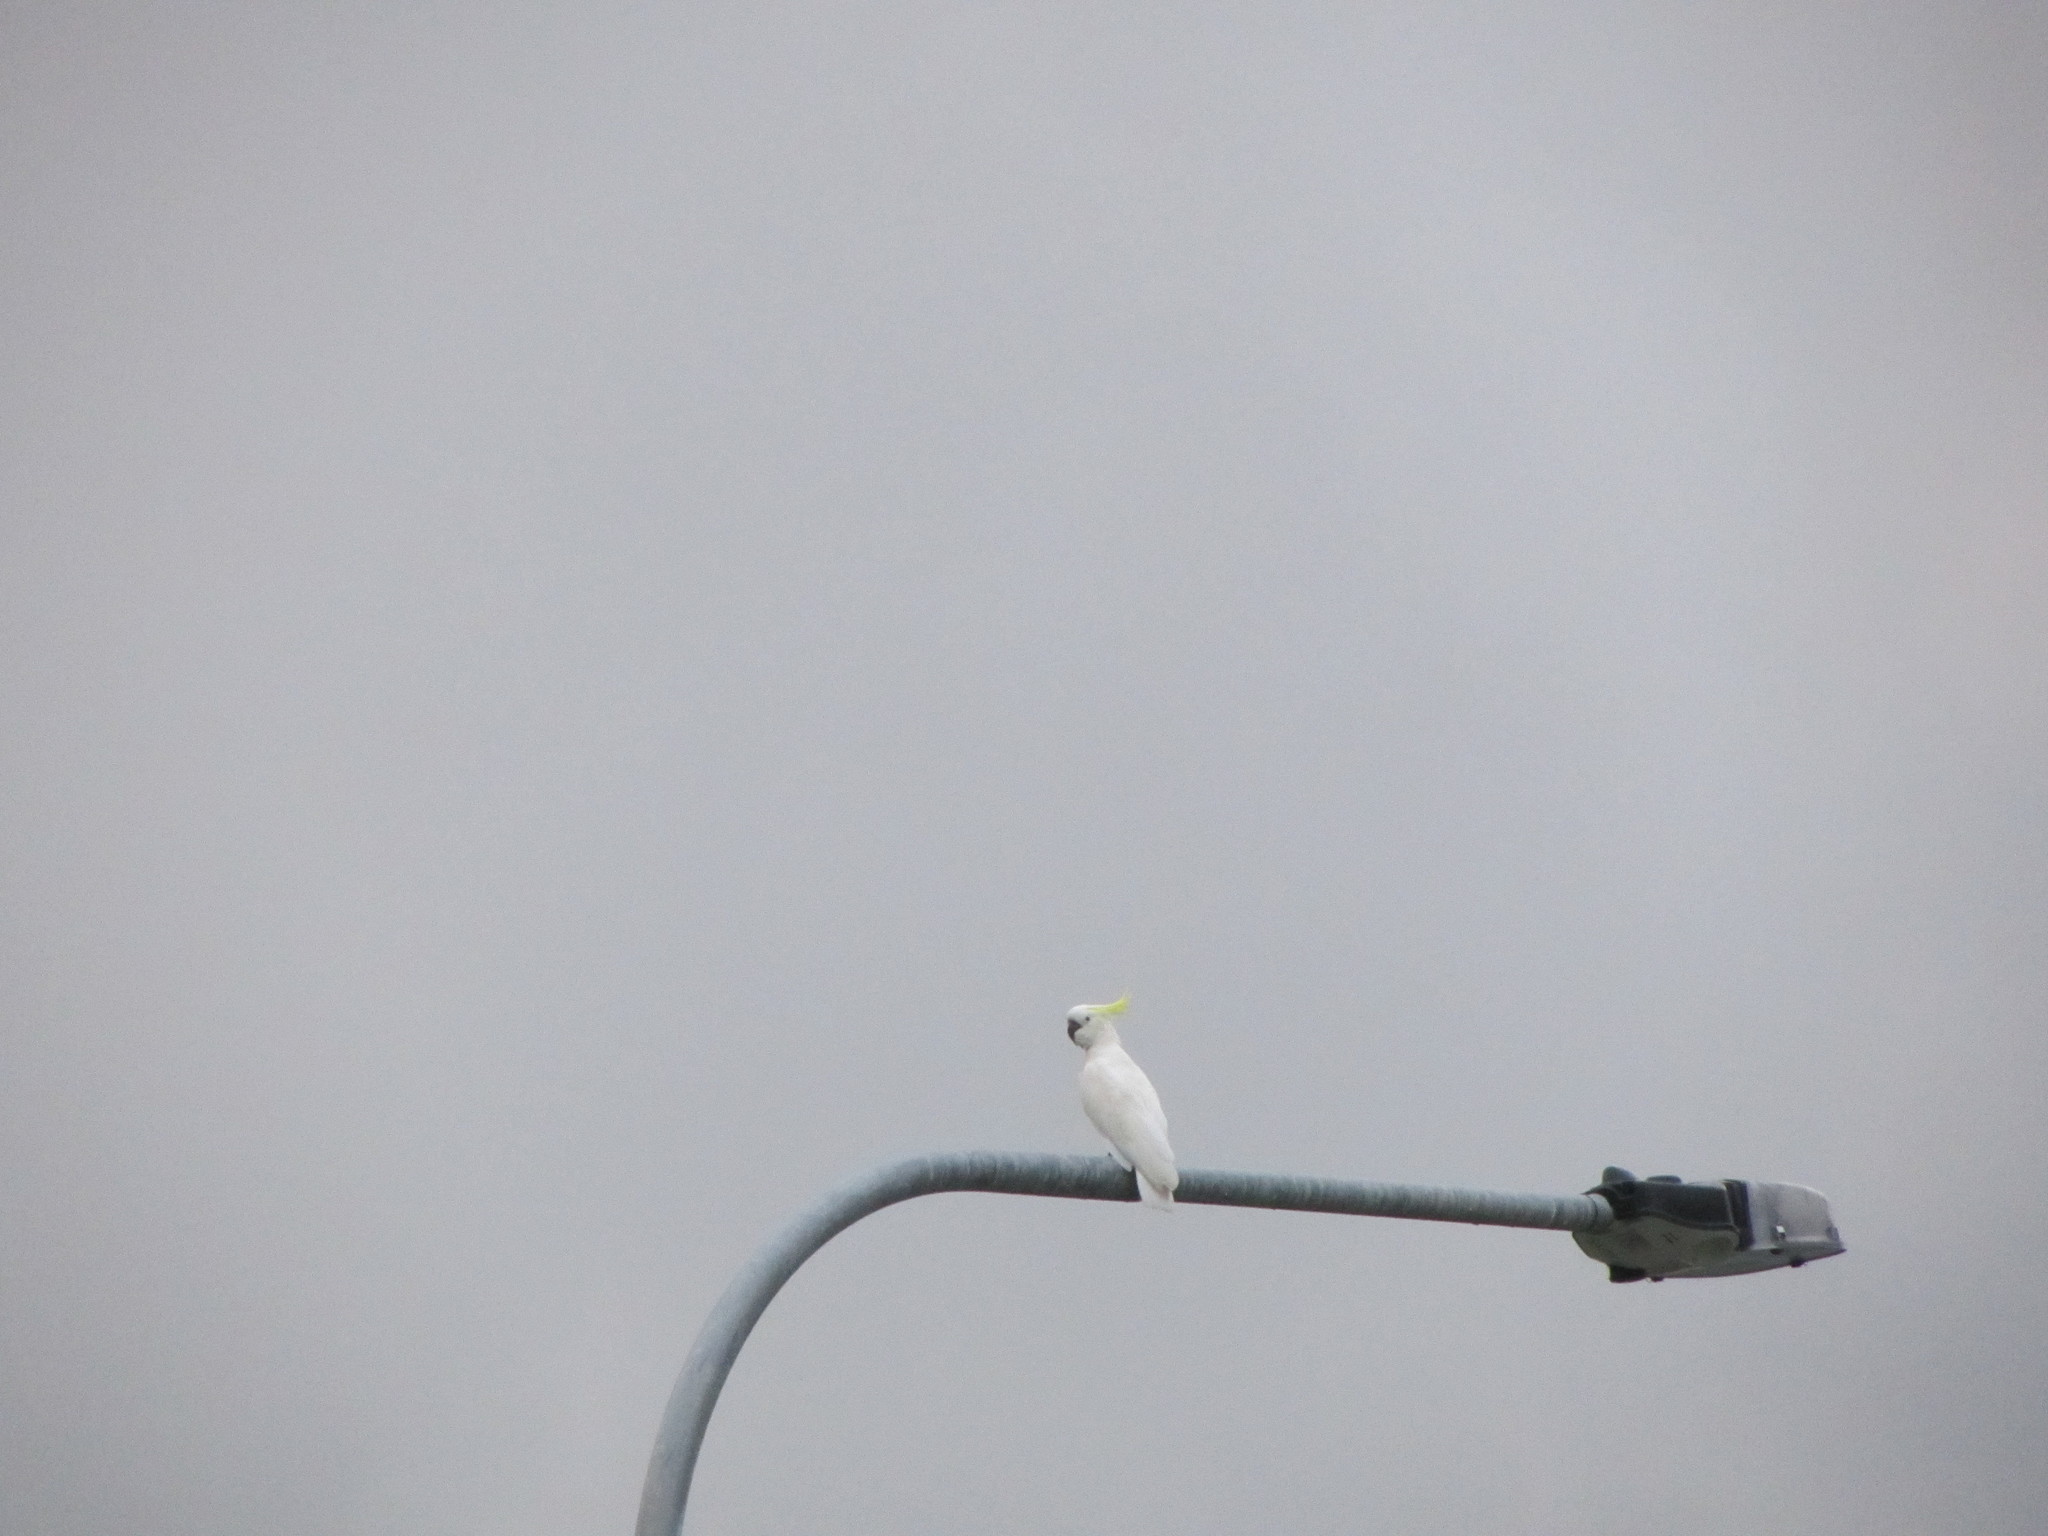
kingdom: Animalia
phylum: Chordata
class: Aves
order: Psittaciformes
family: Psittacidae
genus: Cacatua
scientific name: Cacatua galerita
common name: Sulphur-crested cockatoo
